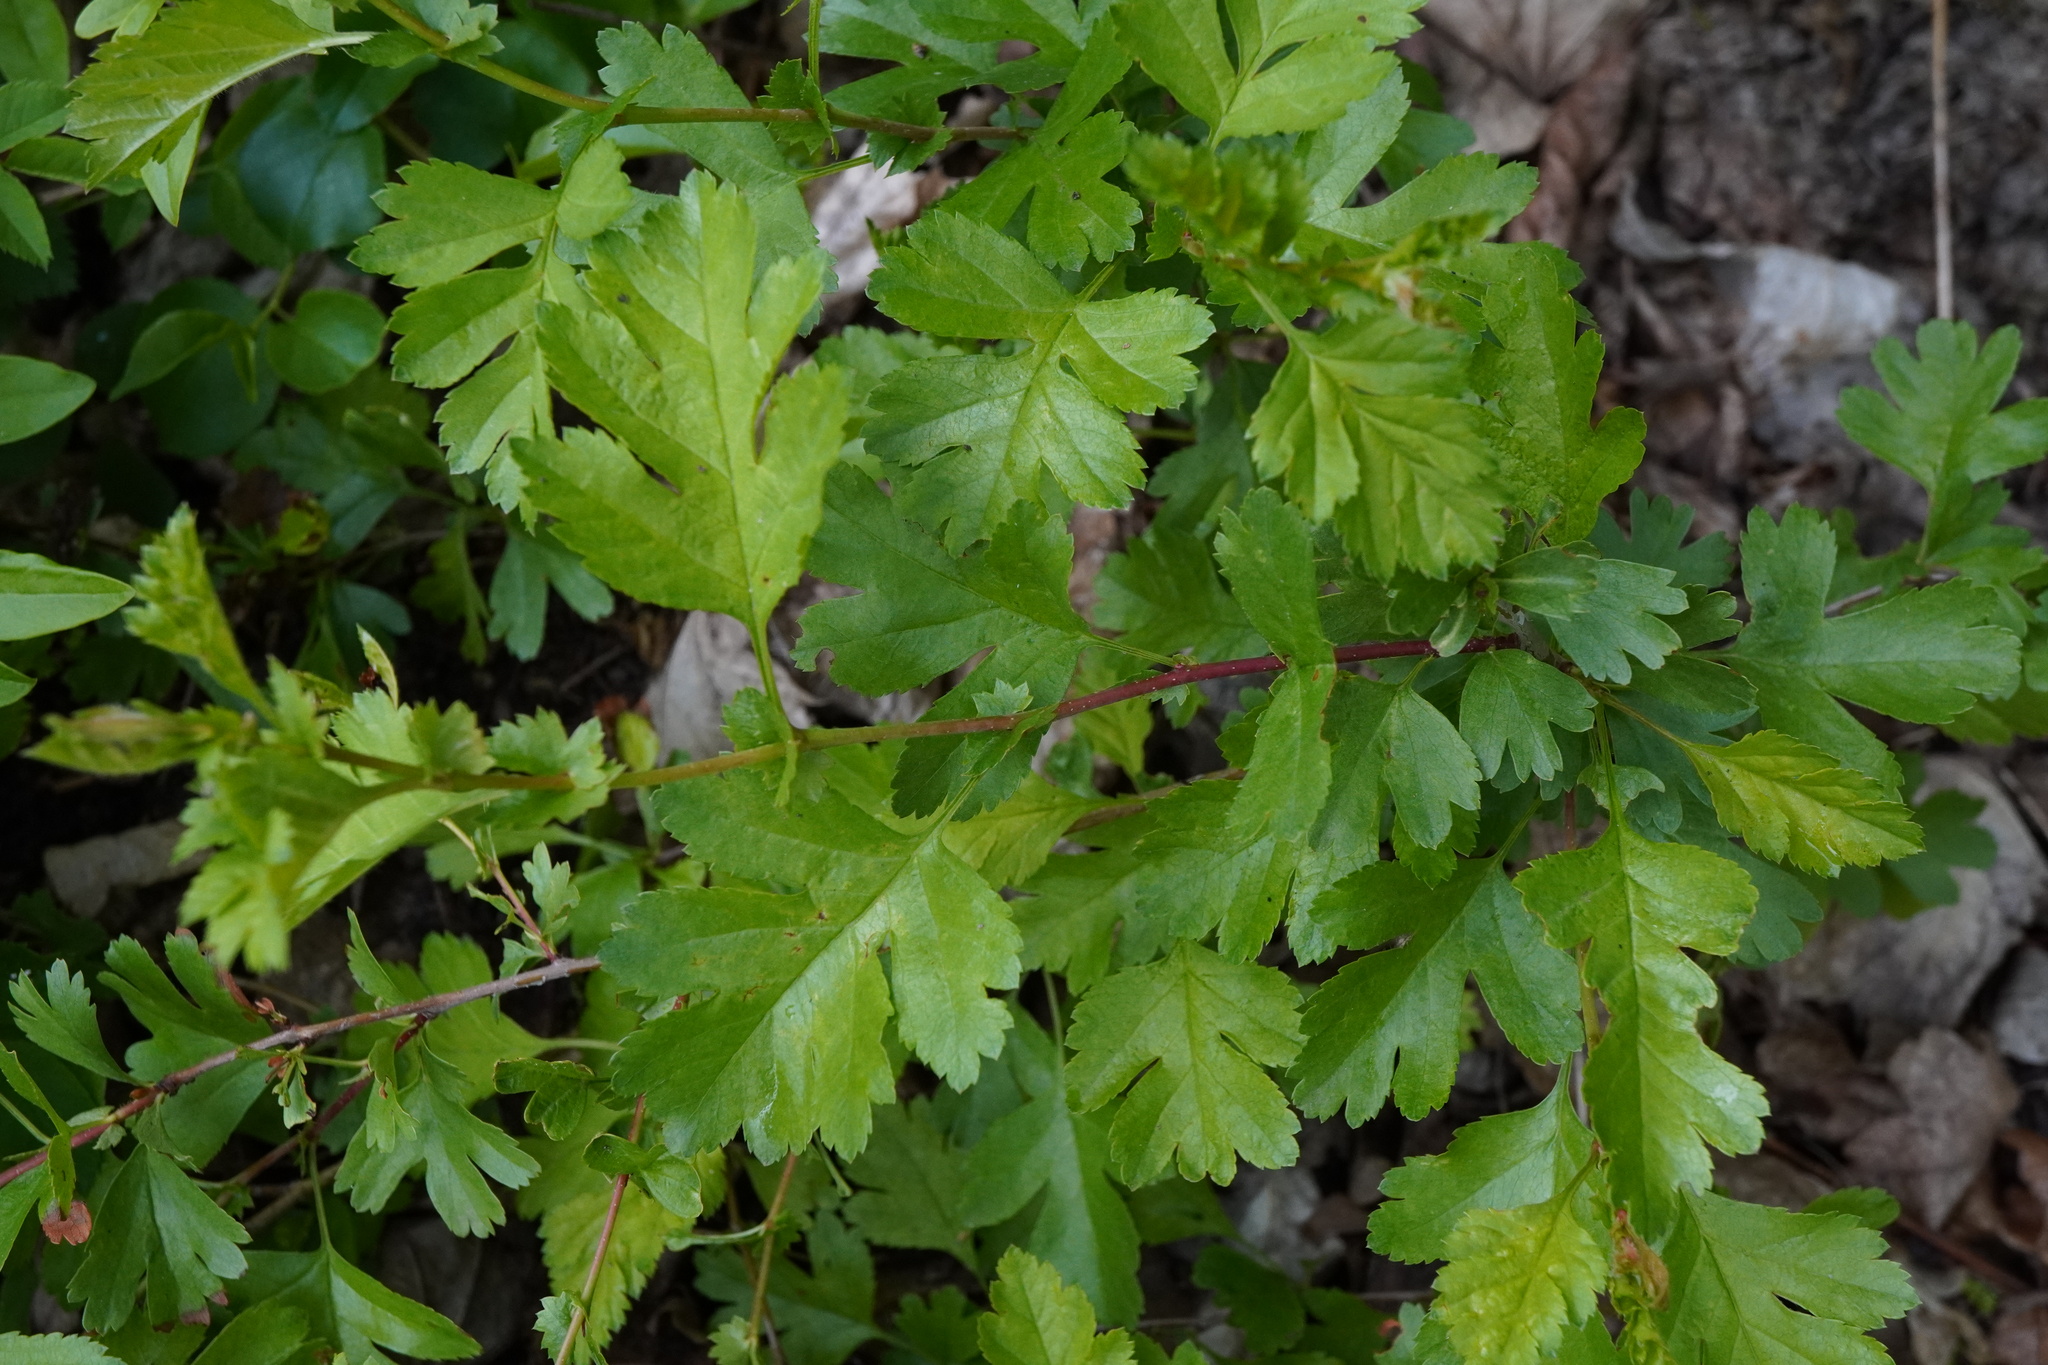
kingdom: Plantae
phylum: Tracheophyta
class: Magnoliopsida
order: Rosales
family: Rosaceae
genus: Crataegus
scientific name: Crataegus monogyna
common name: Hawthorn
